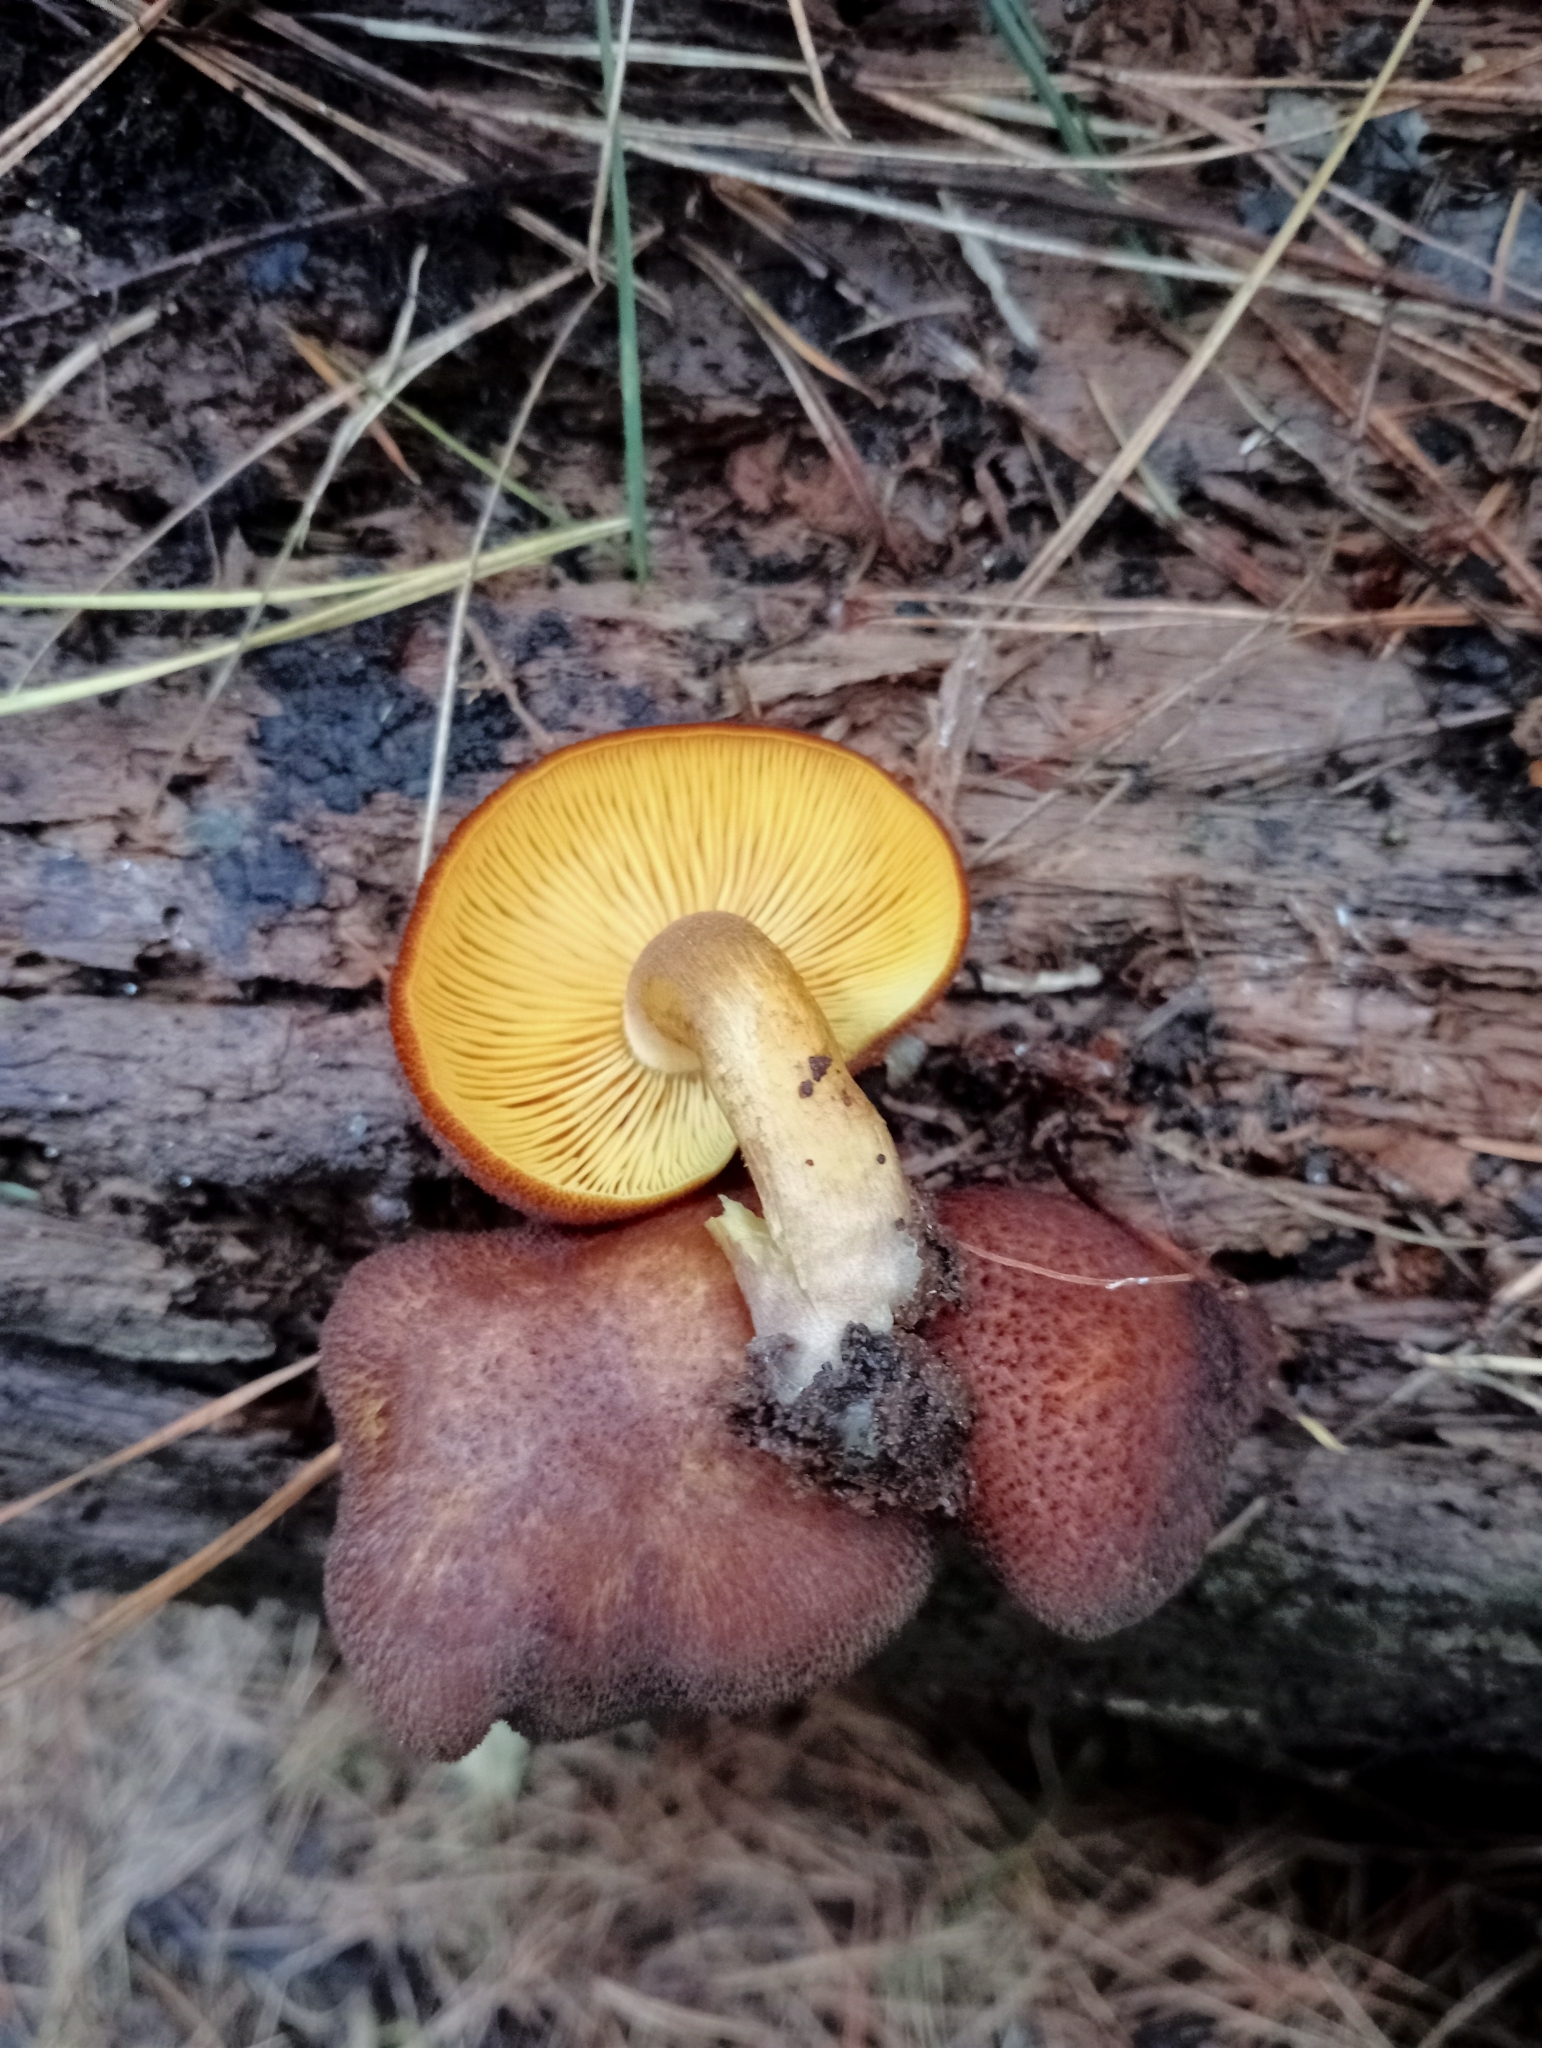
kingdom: Fungi
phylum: Basidiomycota
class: Agaricomycetes
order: Agaricales
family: Tricholomataceae
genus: Tricholomopsis
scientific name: Tricholomopsis ornaticeps
